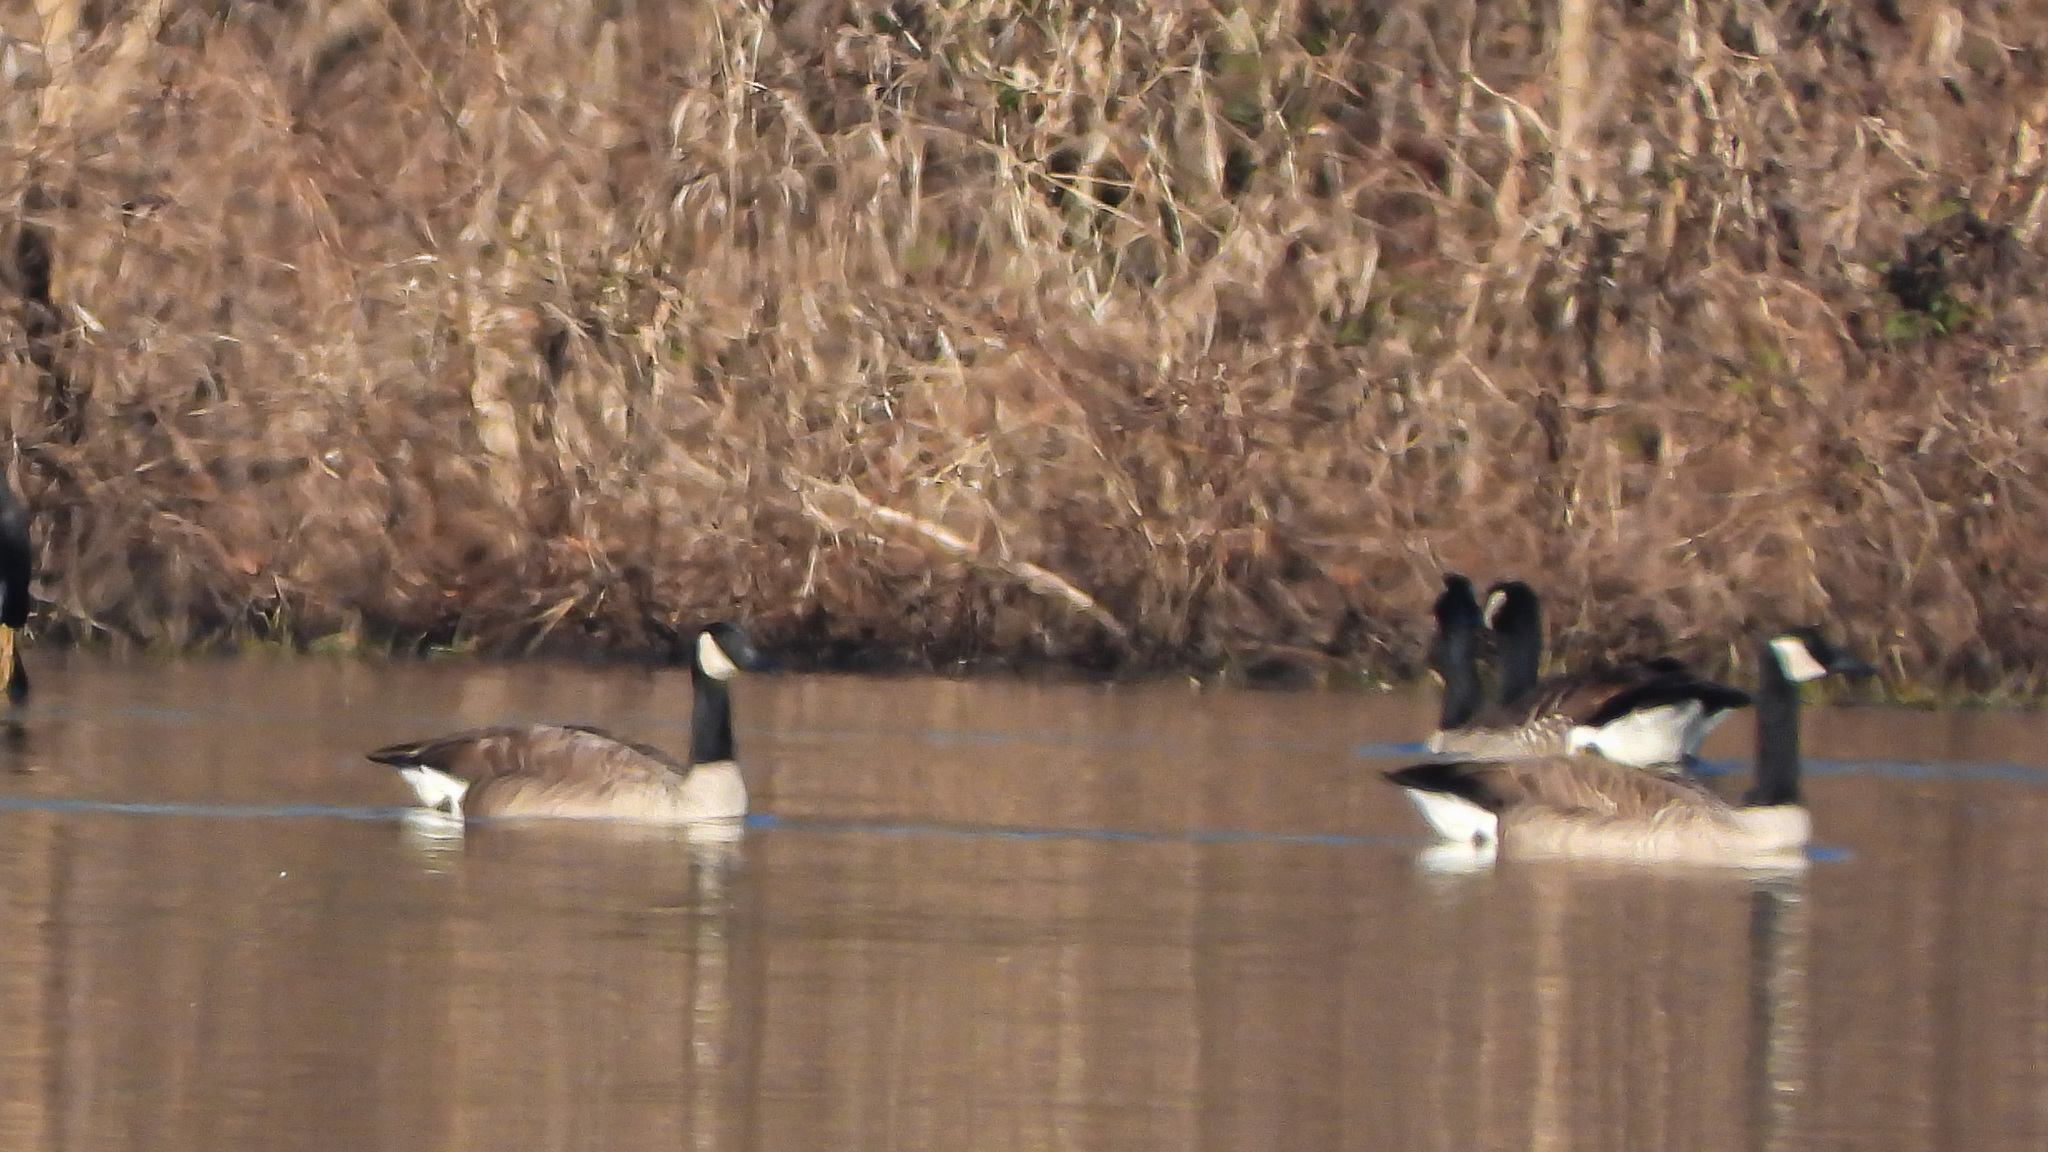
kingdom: Animalia
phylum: Chordata
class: Aves
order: Anseriformes
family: Anatidae
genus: Branta
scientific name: Branta canadensis
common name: Canada goose
